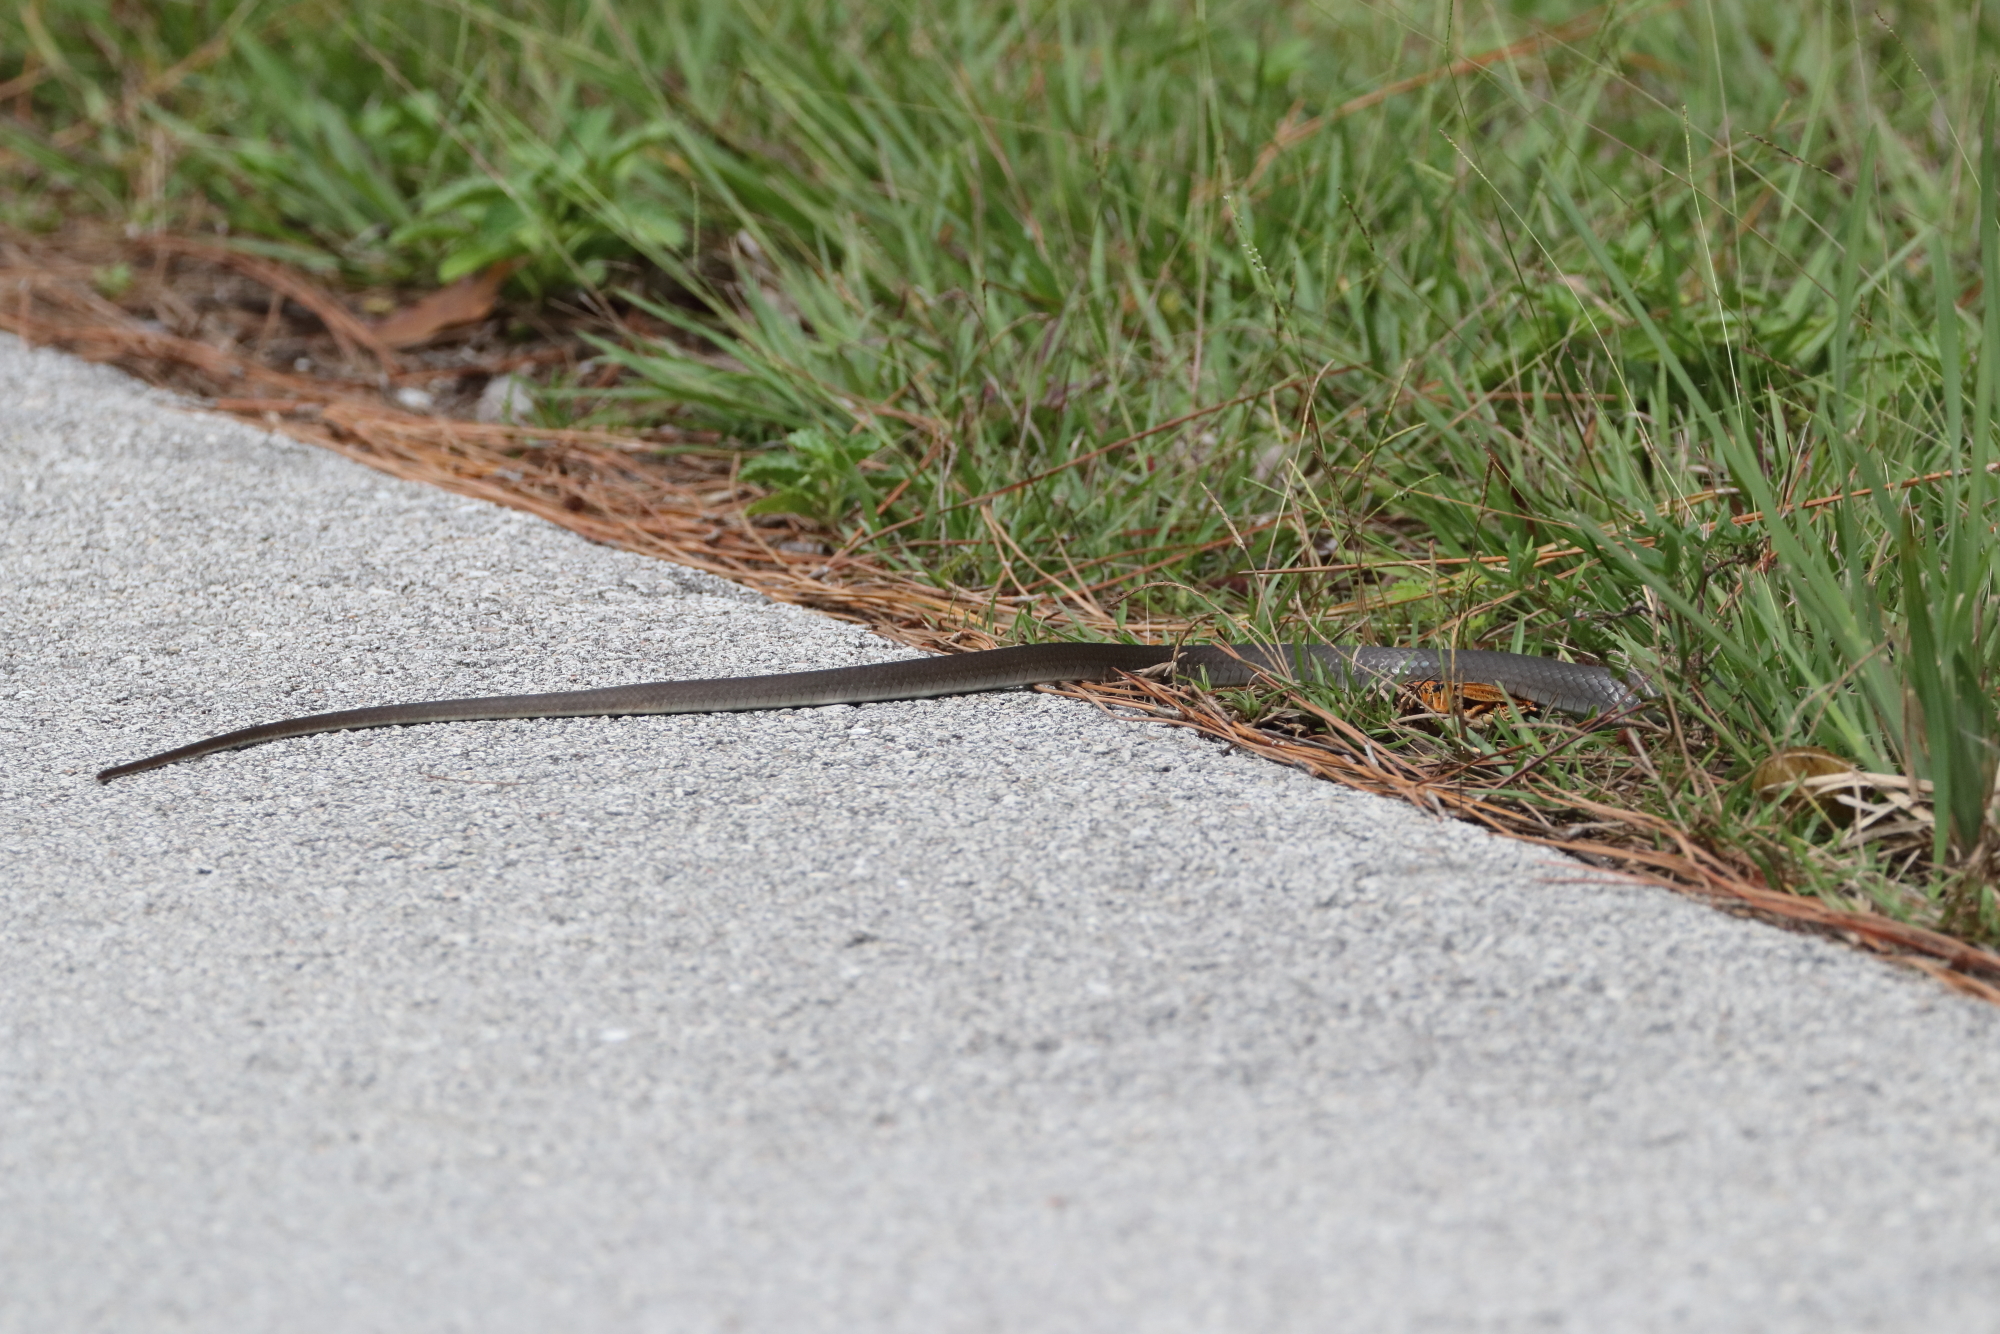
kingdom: Animalia
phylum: Chordata
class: Squamata
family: Colubridae
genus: Coluber
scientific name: Coluber constrictor
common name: Eastern racer
